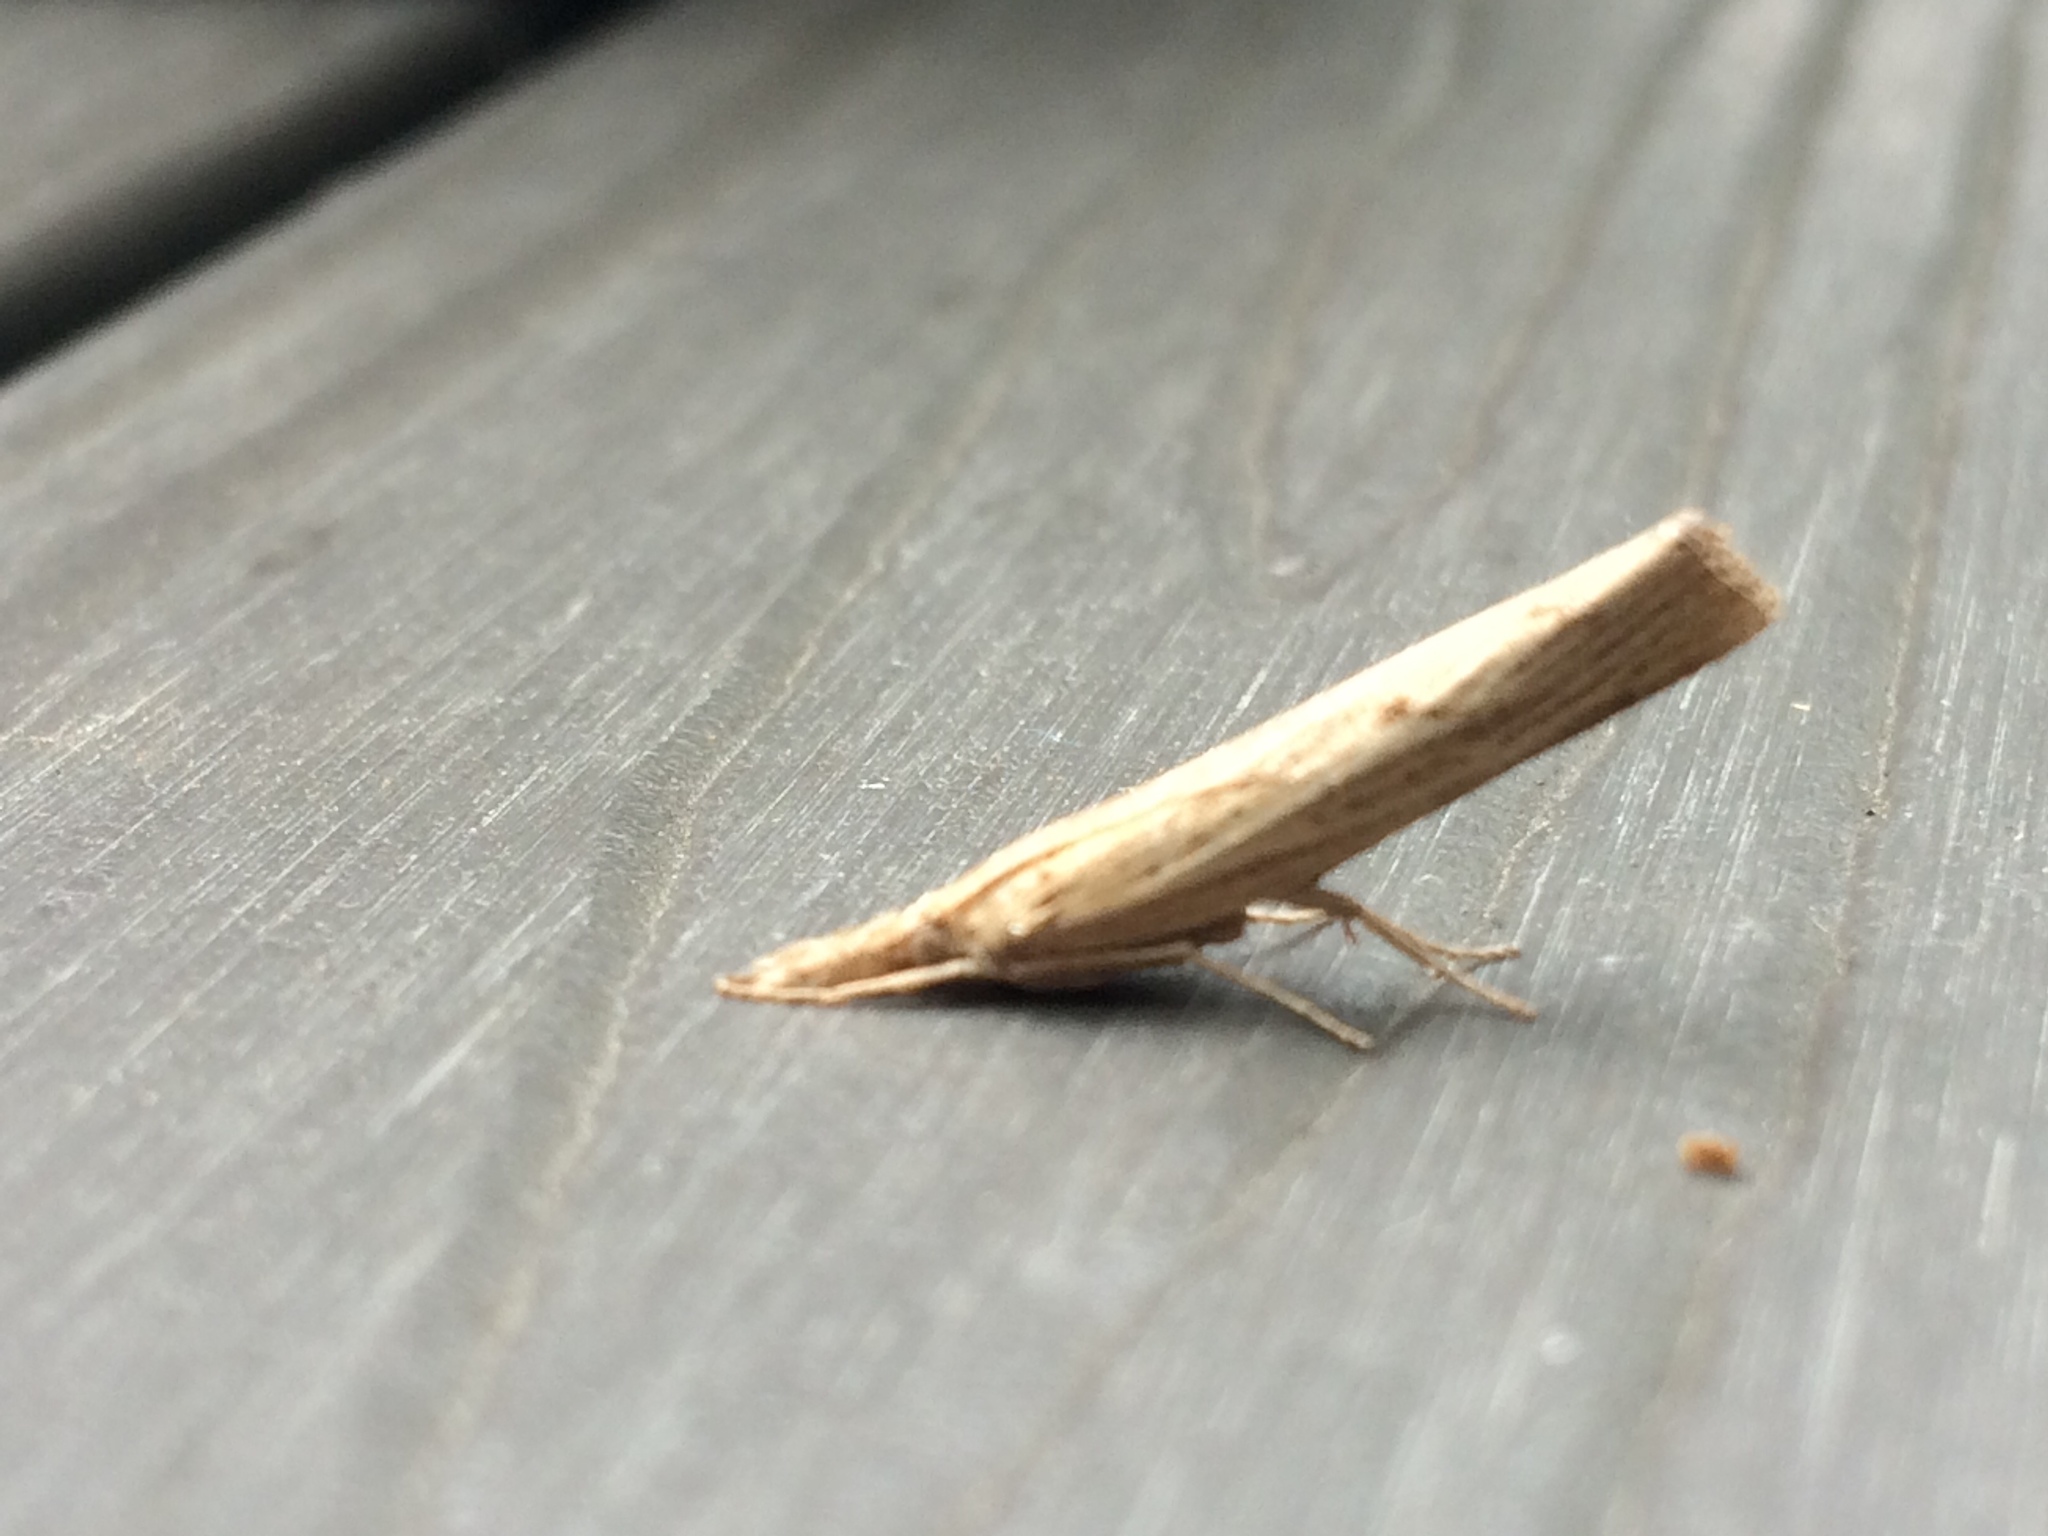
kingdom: Animalia
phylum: Arthropoda
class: Insecta
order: Lepidoptera
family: Crambidae
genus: Pediasia
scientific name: Pediasia contaminella
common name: Waste grass-veneer
